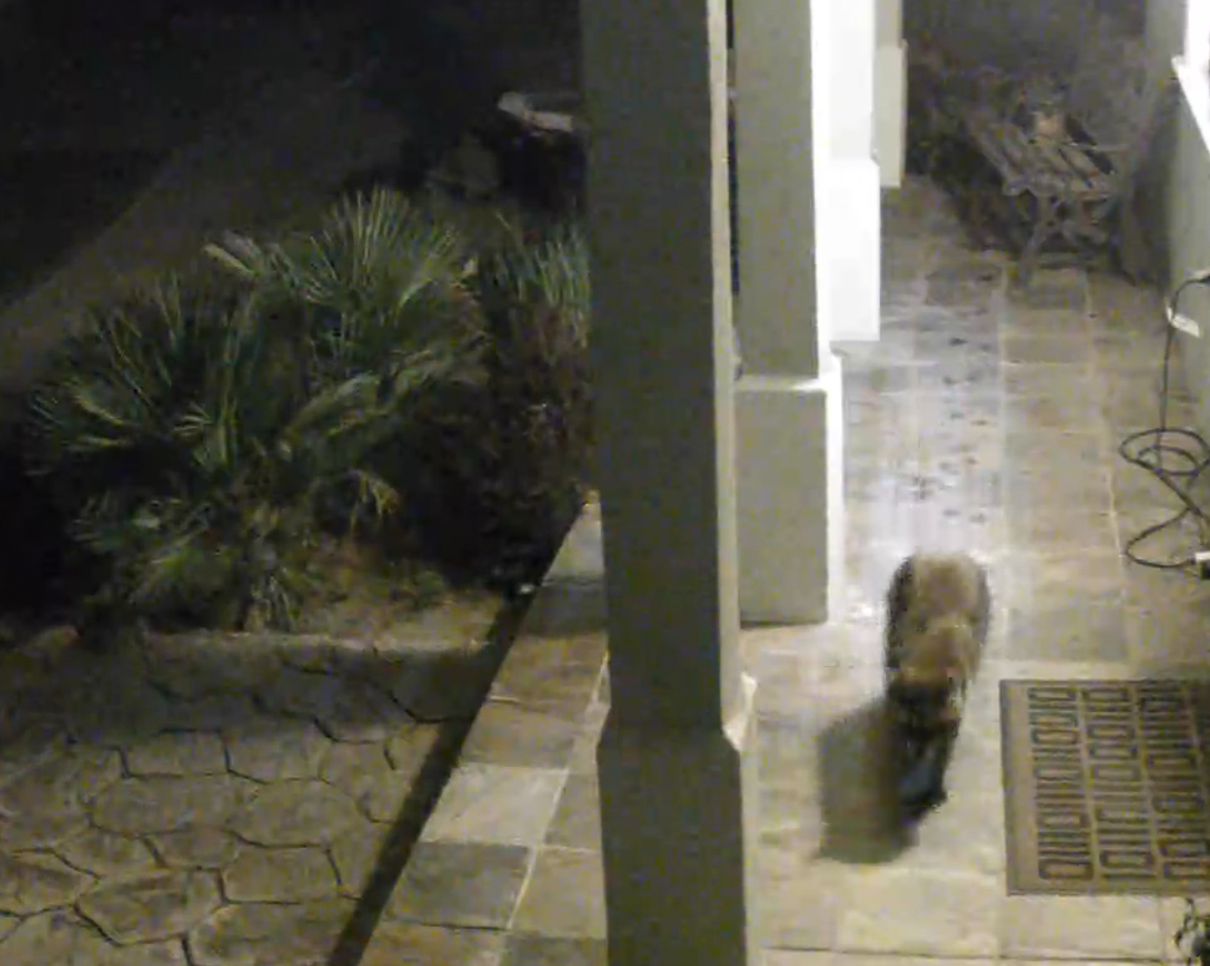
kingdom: Animalia
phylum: Chordata
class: Mammalia
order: Carnivora
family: Procyonidae
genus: Procyon
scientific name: Procyon lotor
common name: Raccoon
